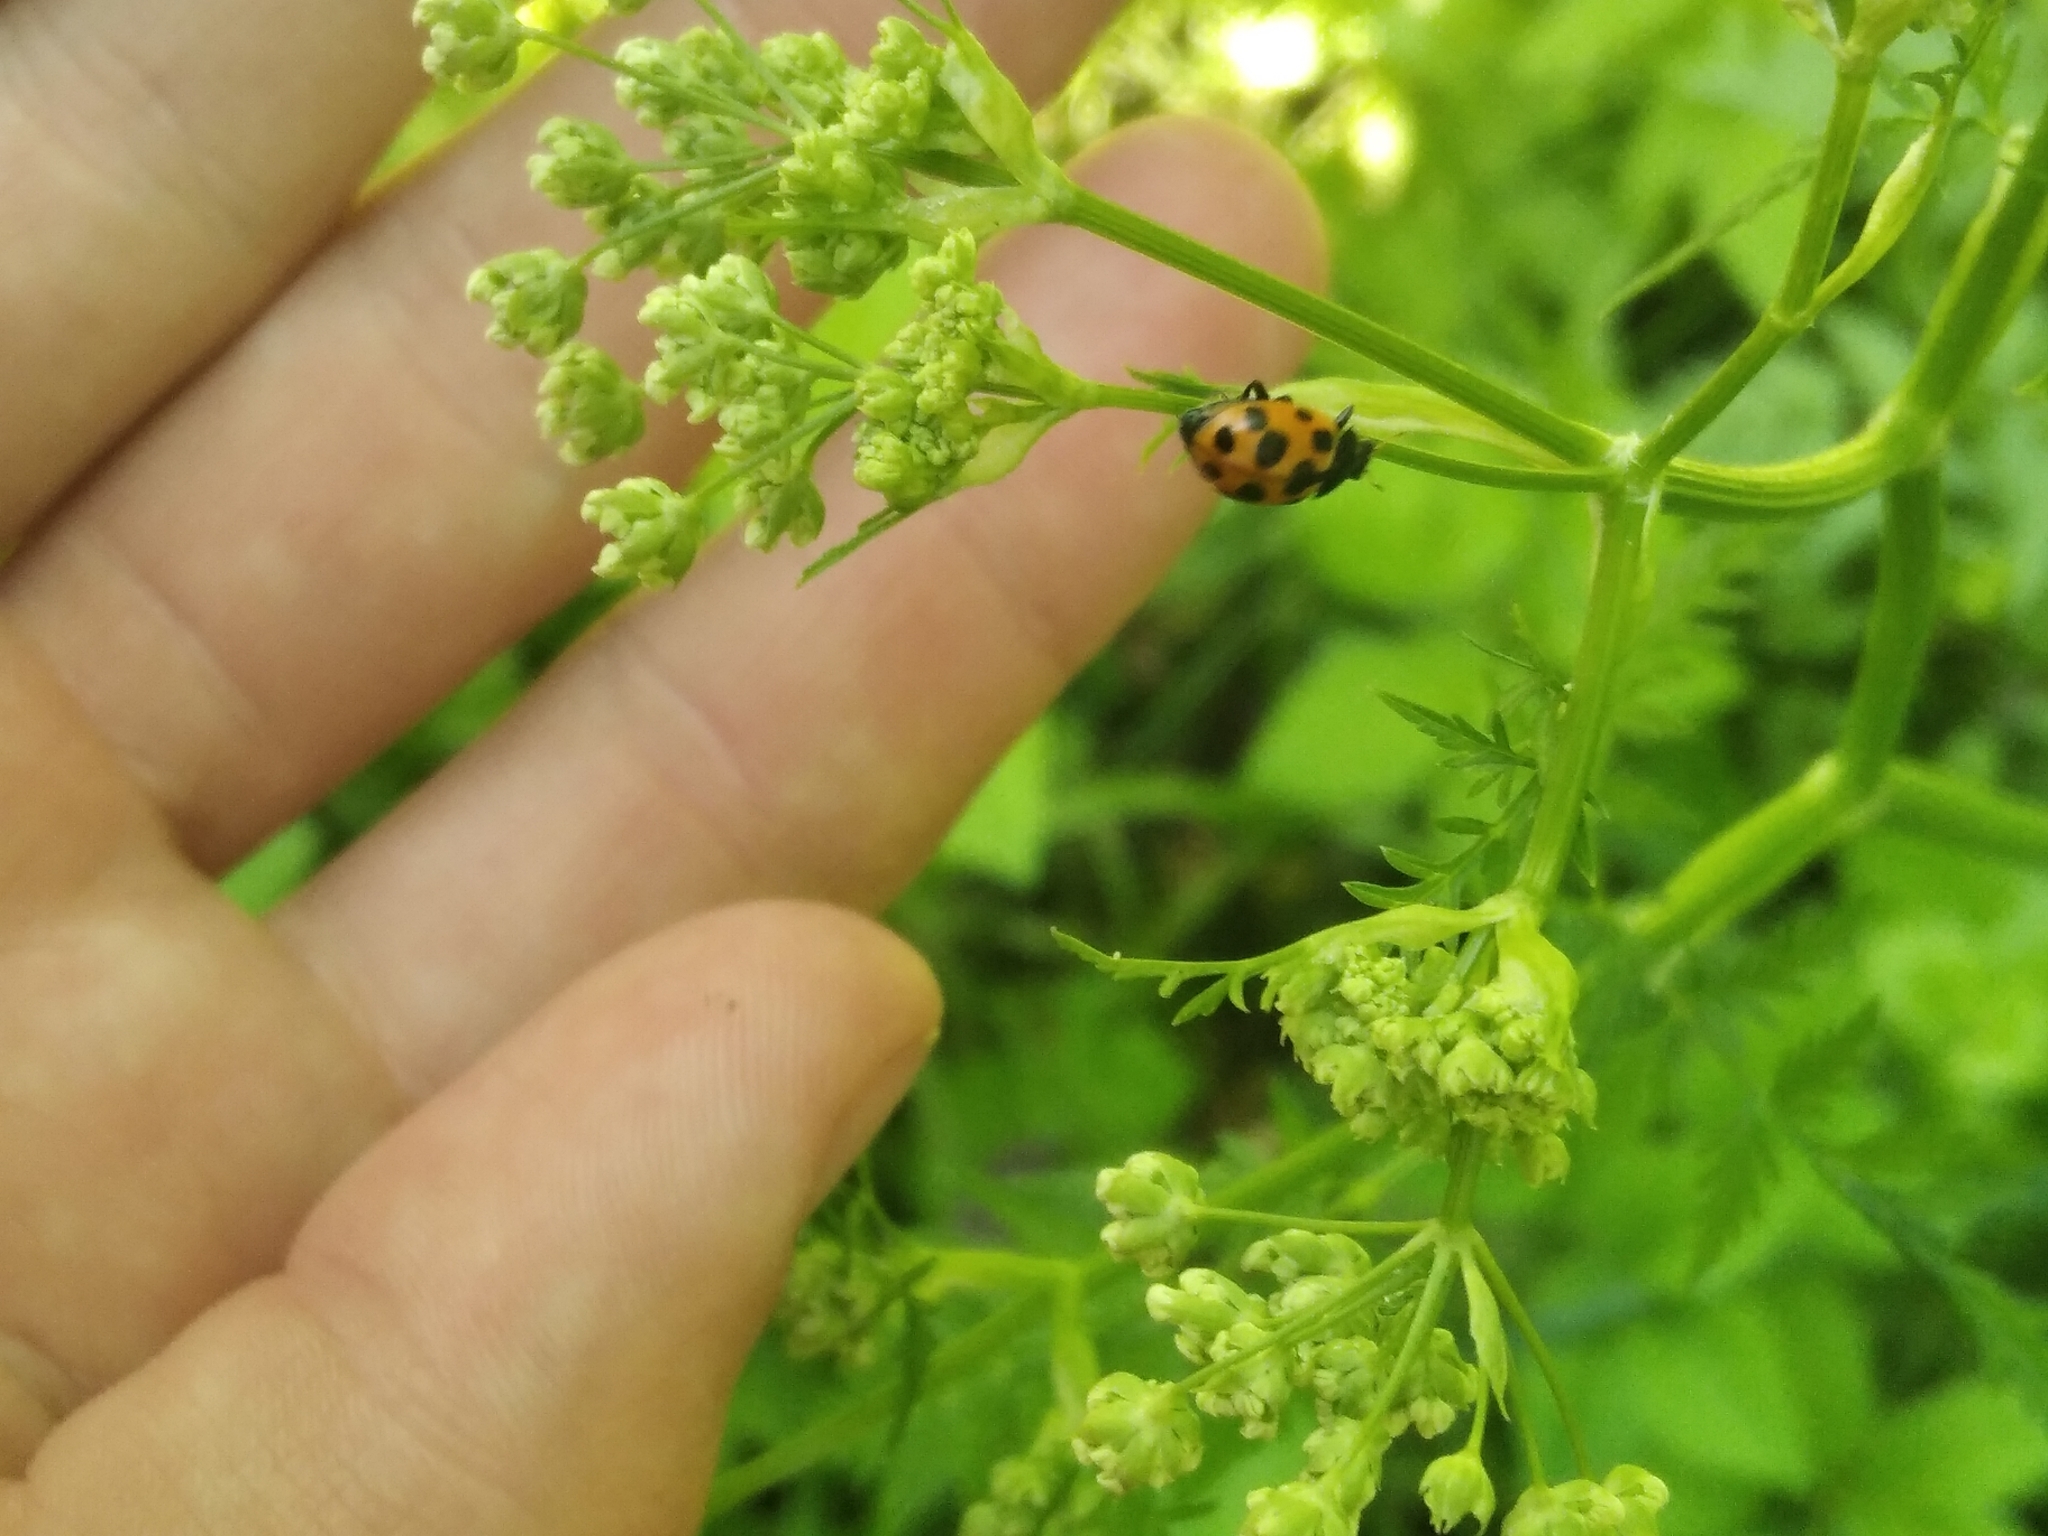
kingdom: Animalia
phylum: Arthropoda
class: Insecta
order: Coleoptera
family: Coccinellidae
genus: Ceratomegilla
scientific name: Ceratomegilla notata
